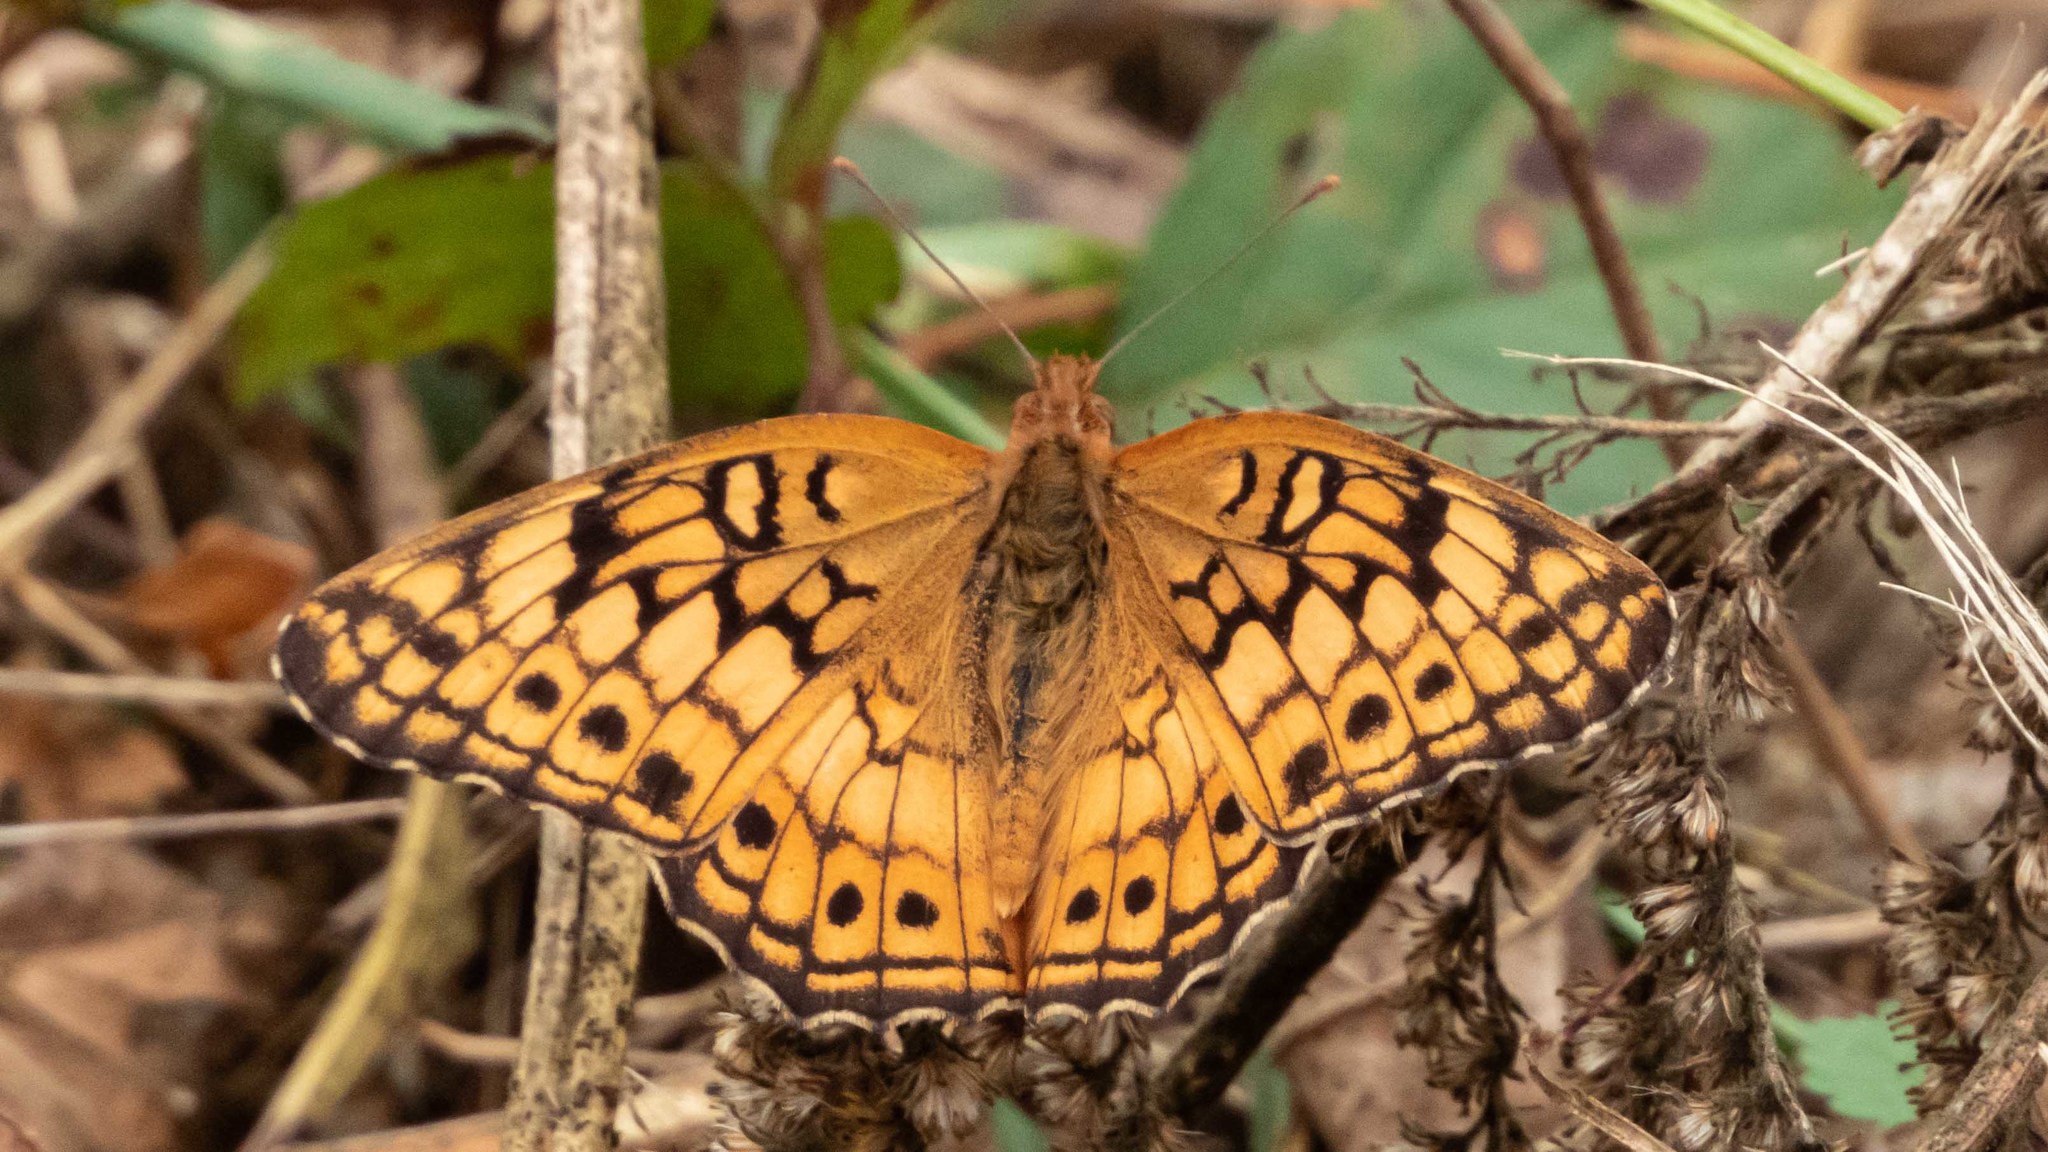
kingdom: Animalia
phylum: Arthropoda
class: Insecta
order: Lepidoptera
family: Nymphalidae
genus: Euptoieta
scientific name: Euptoieta claudia
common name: Variegated fritillary
